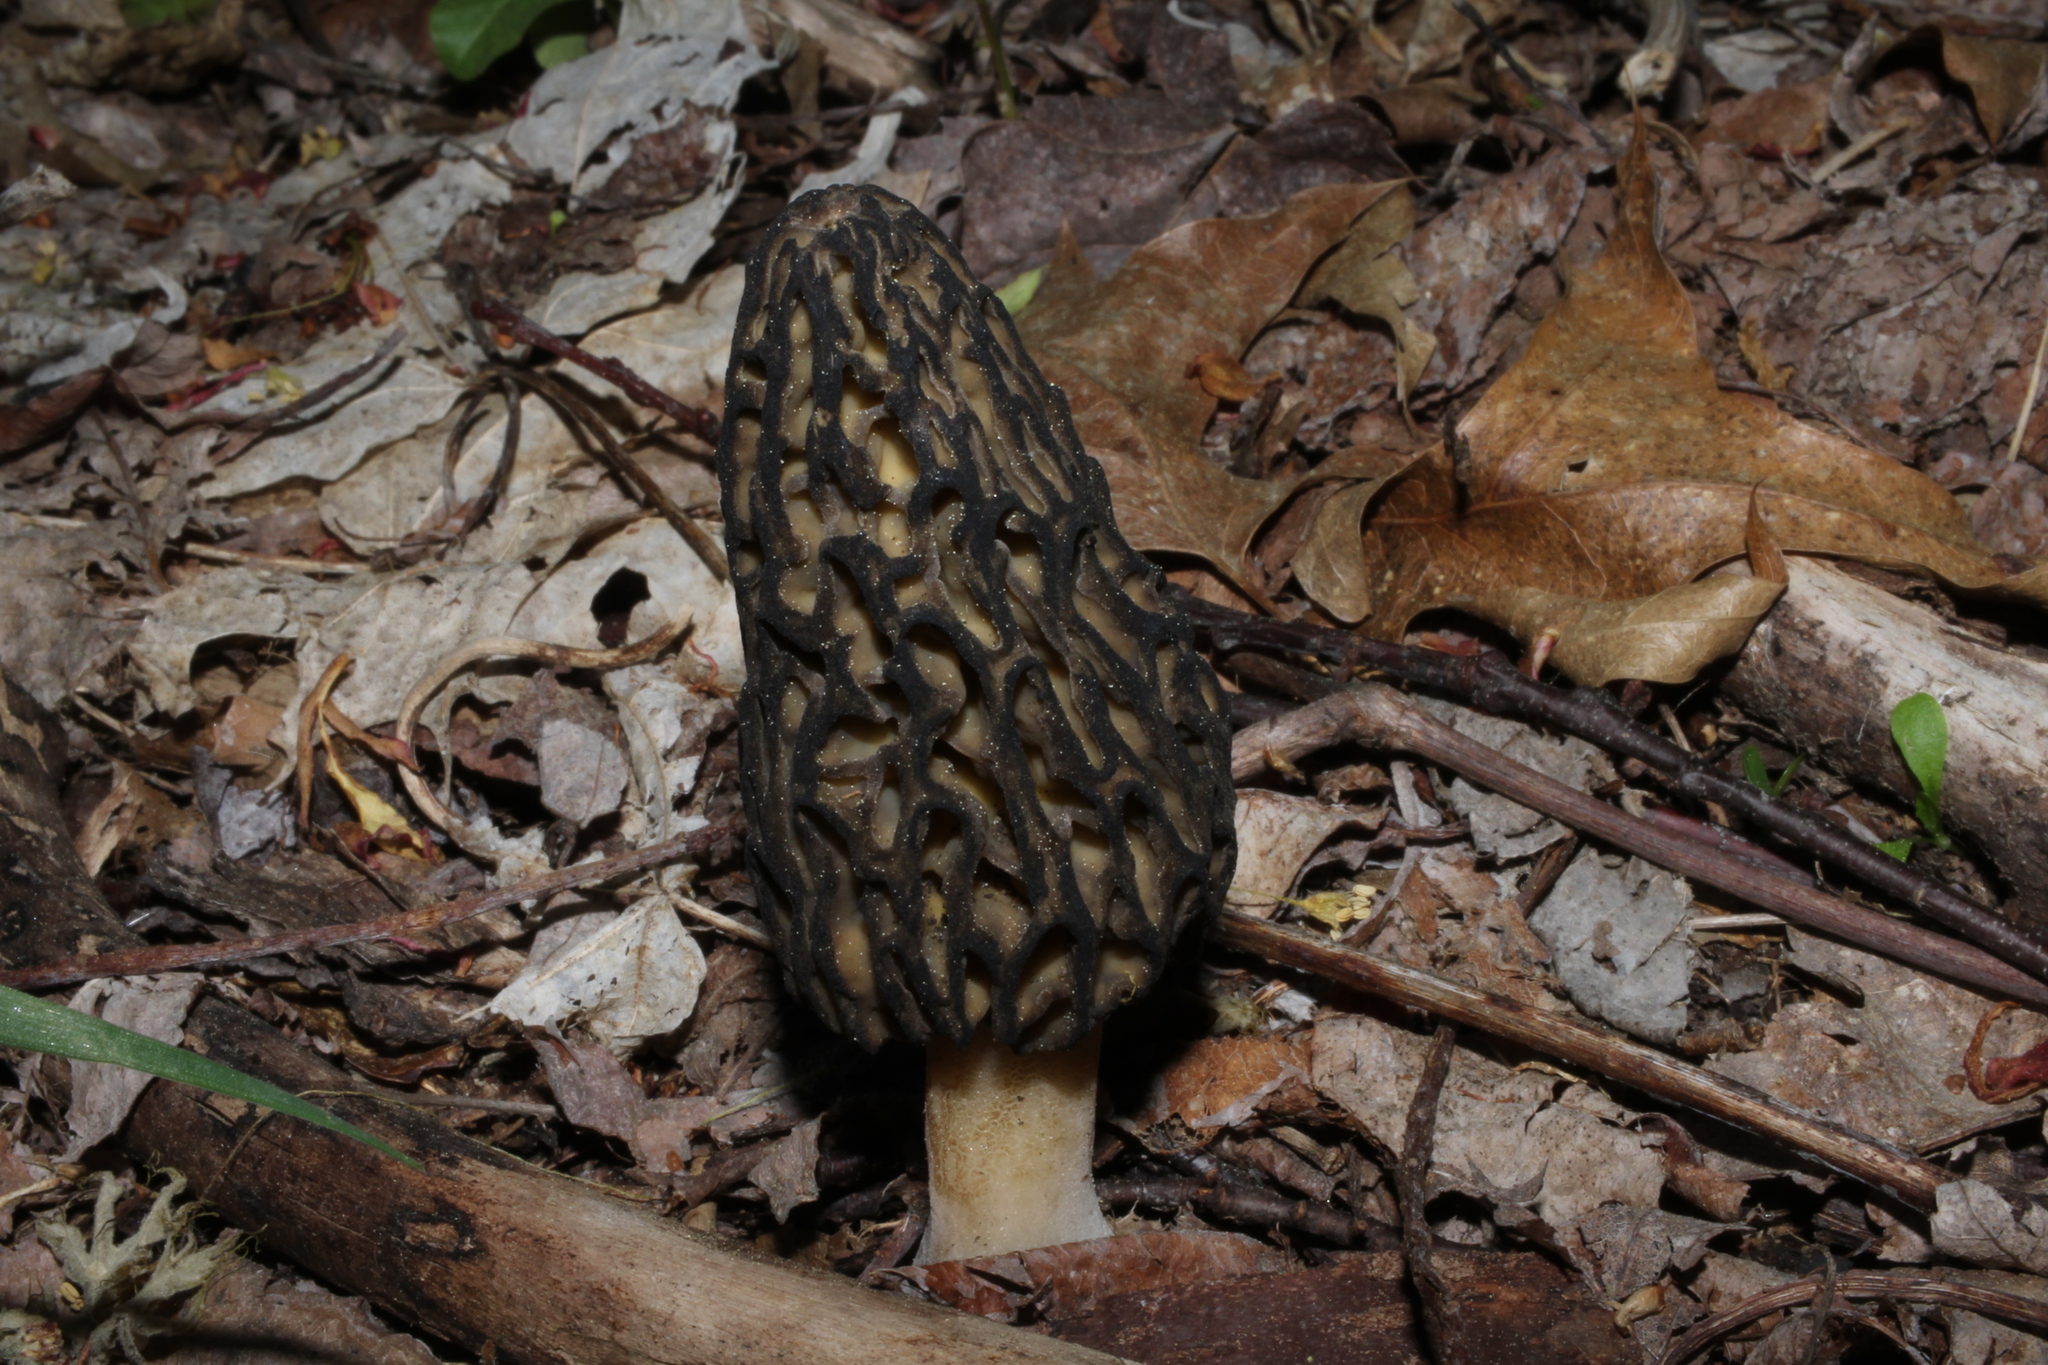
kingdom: Fungi
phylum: Ascomycota
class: Pezizomycetes
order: Pezizales
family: Morchellaceae
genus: Morchella
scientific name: Morchella angusticeps
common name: Black morel
